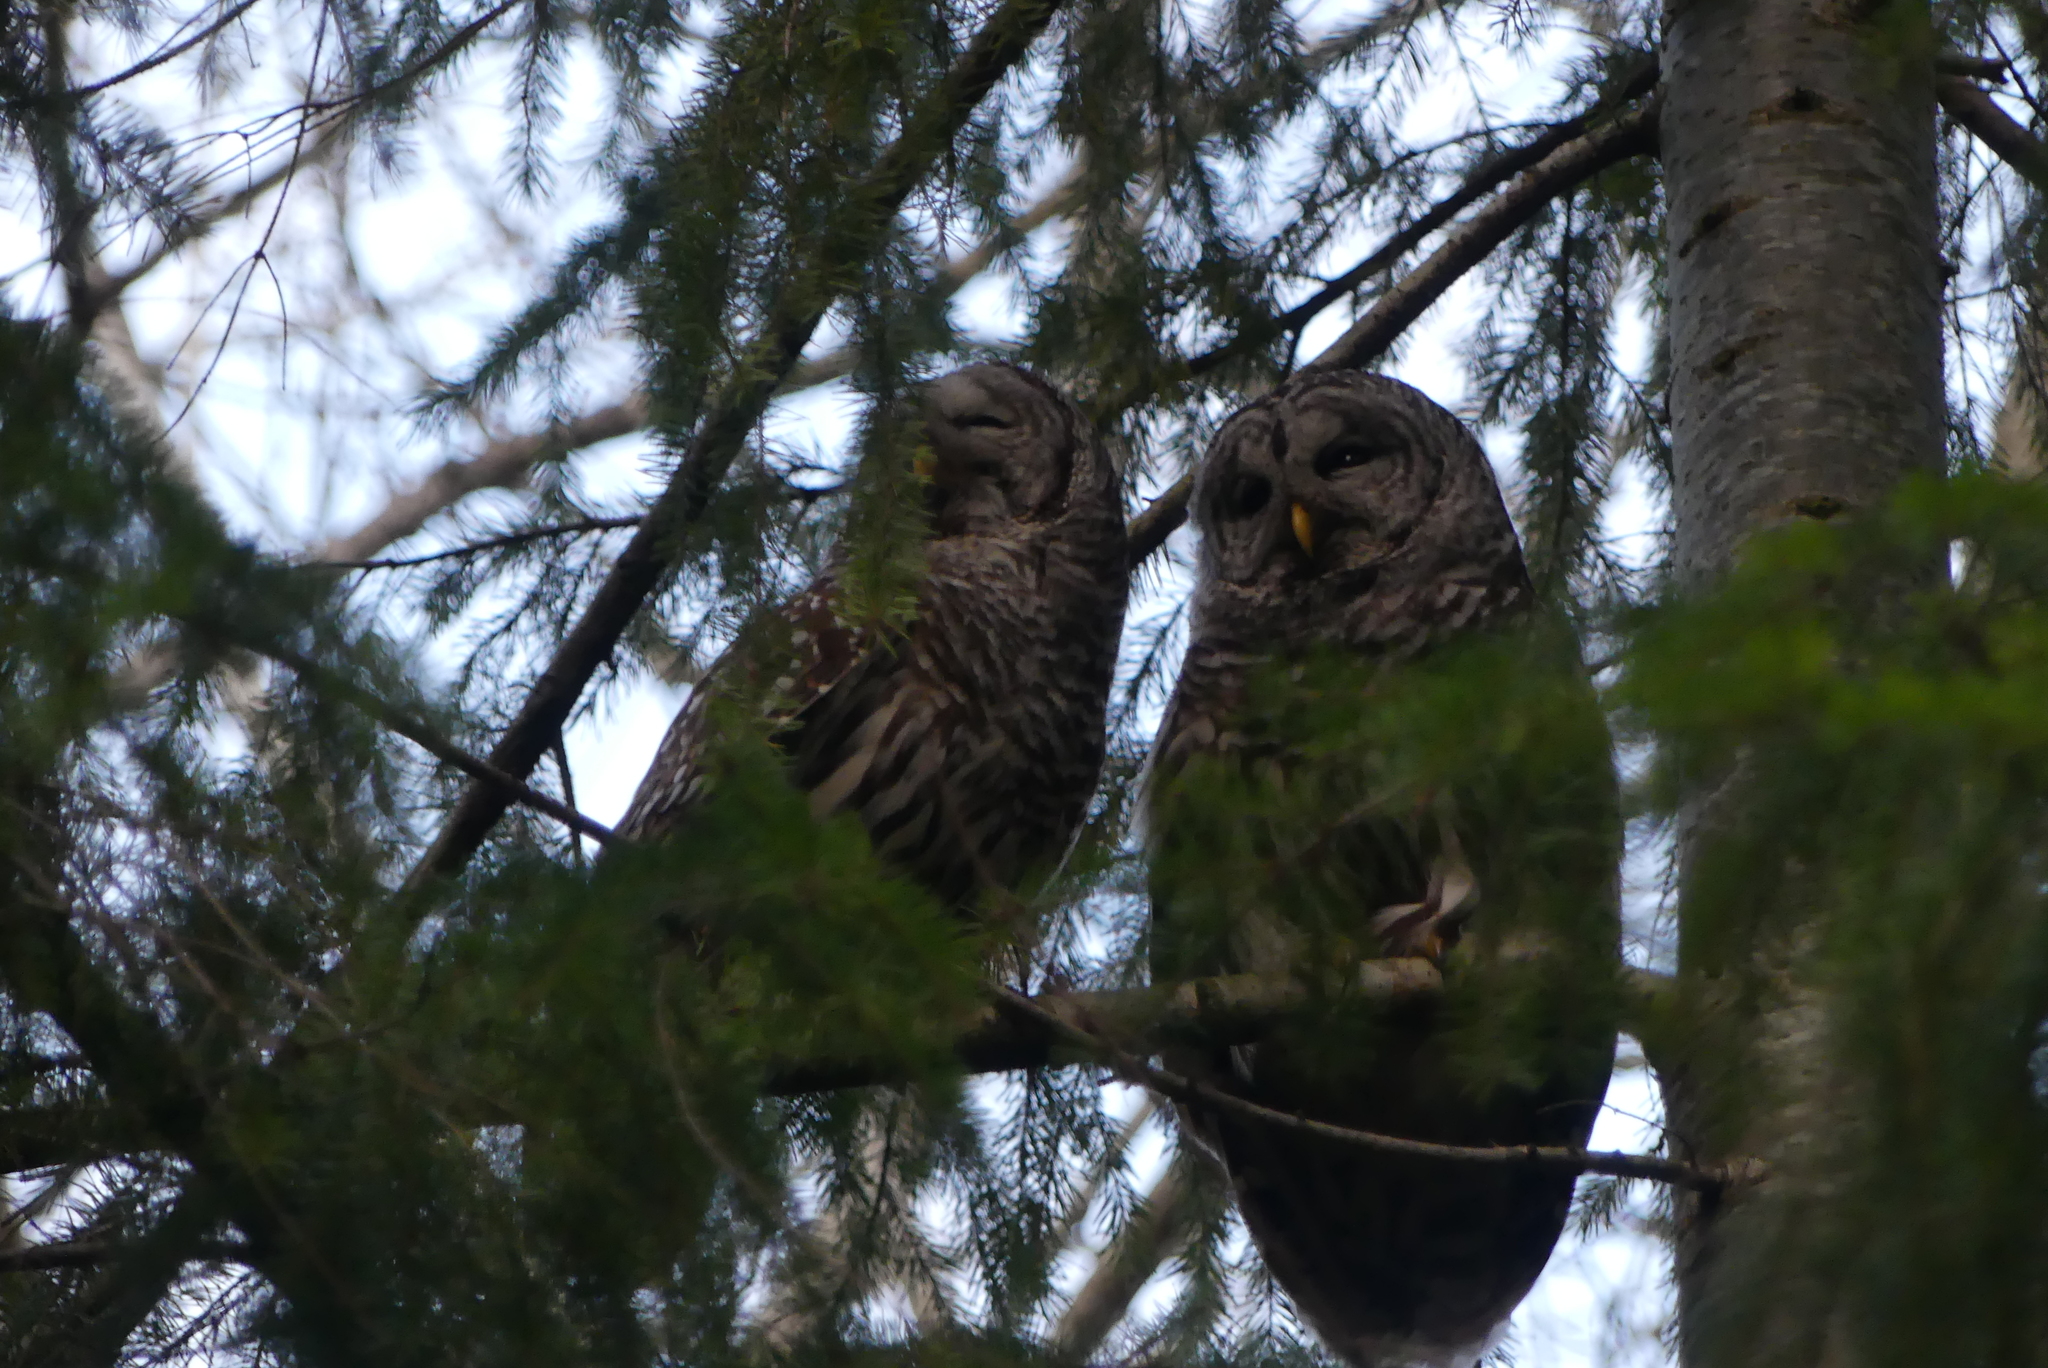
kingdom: Animalia
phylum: Chordata
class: Aves
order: Strigiformes
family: Strigidae
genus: Strix
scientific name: Strix varia
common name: Barred owl
